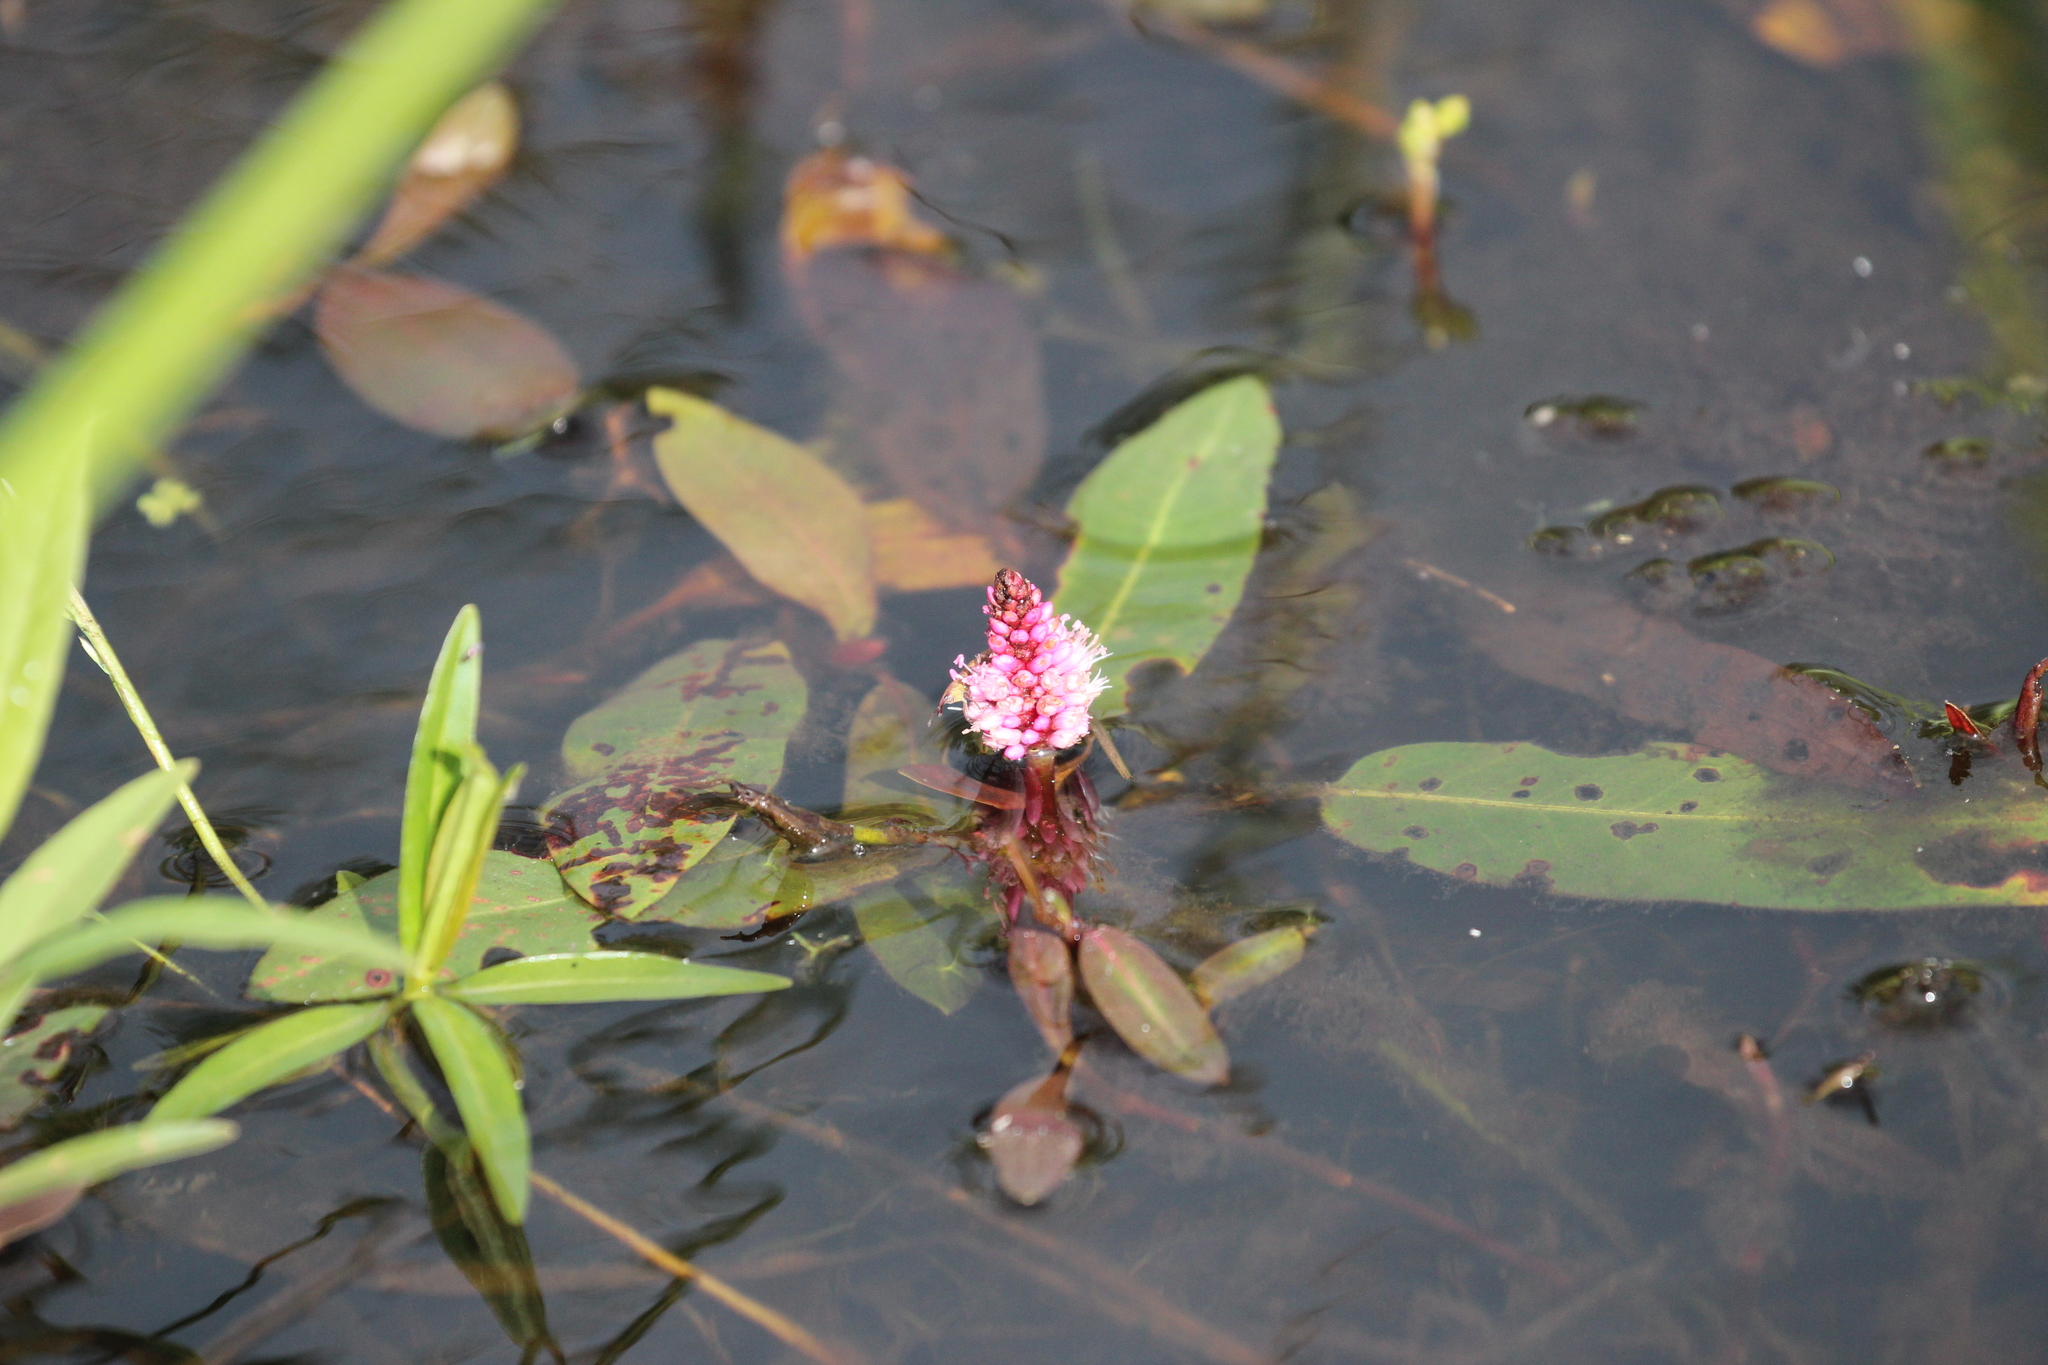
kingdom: Plantae
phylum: Tracheophyta
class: Magnoliopsida
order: Caryophyllales
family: Polygonaceae
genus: Persicaria
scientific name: Persicaria amphibia
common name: Amphibious bistort
